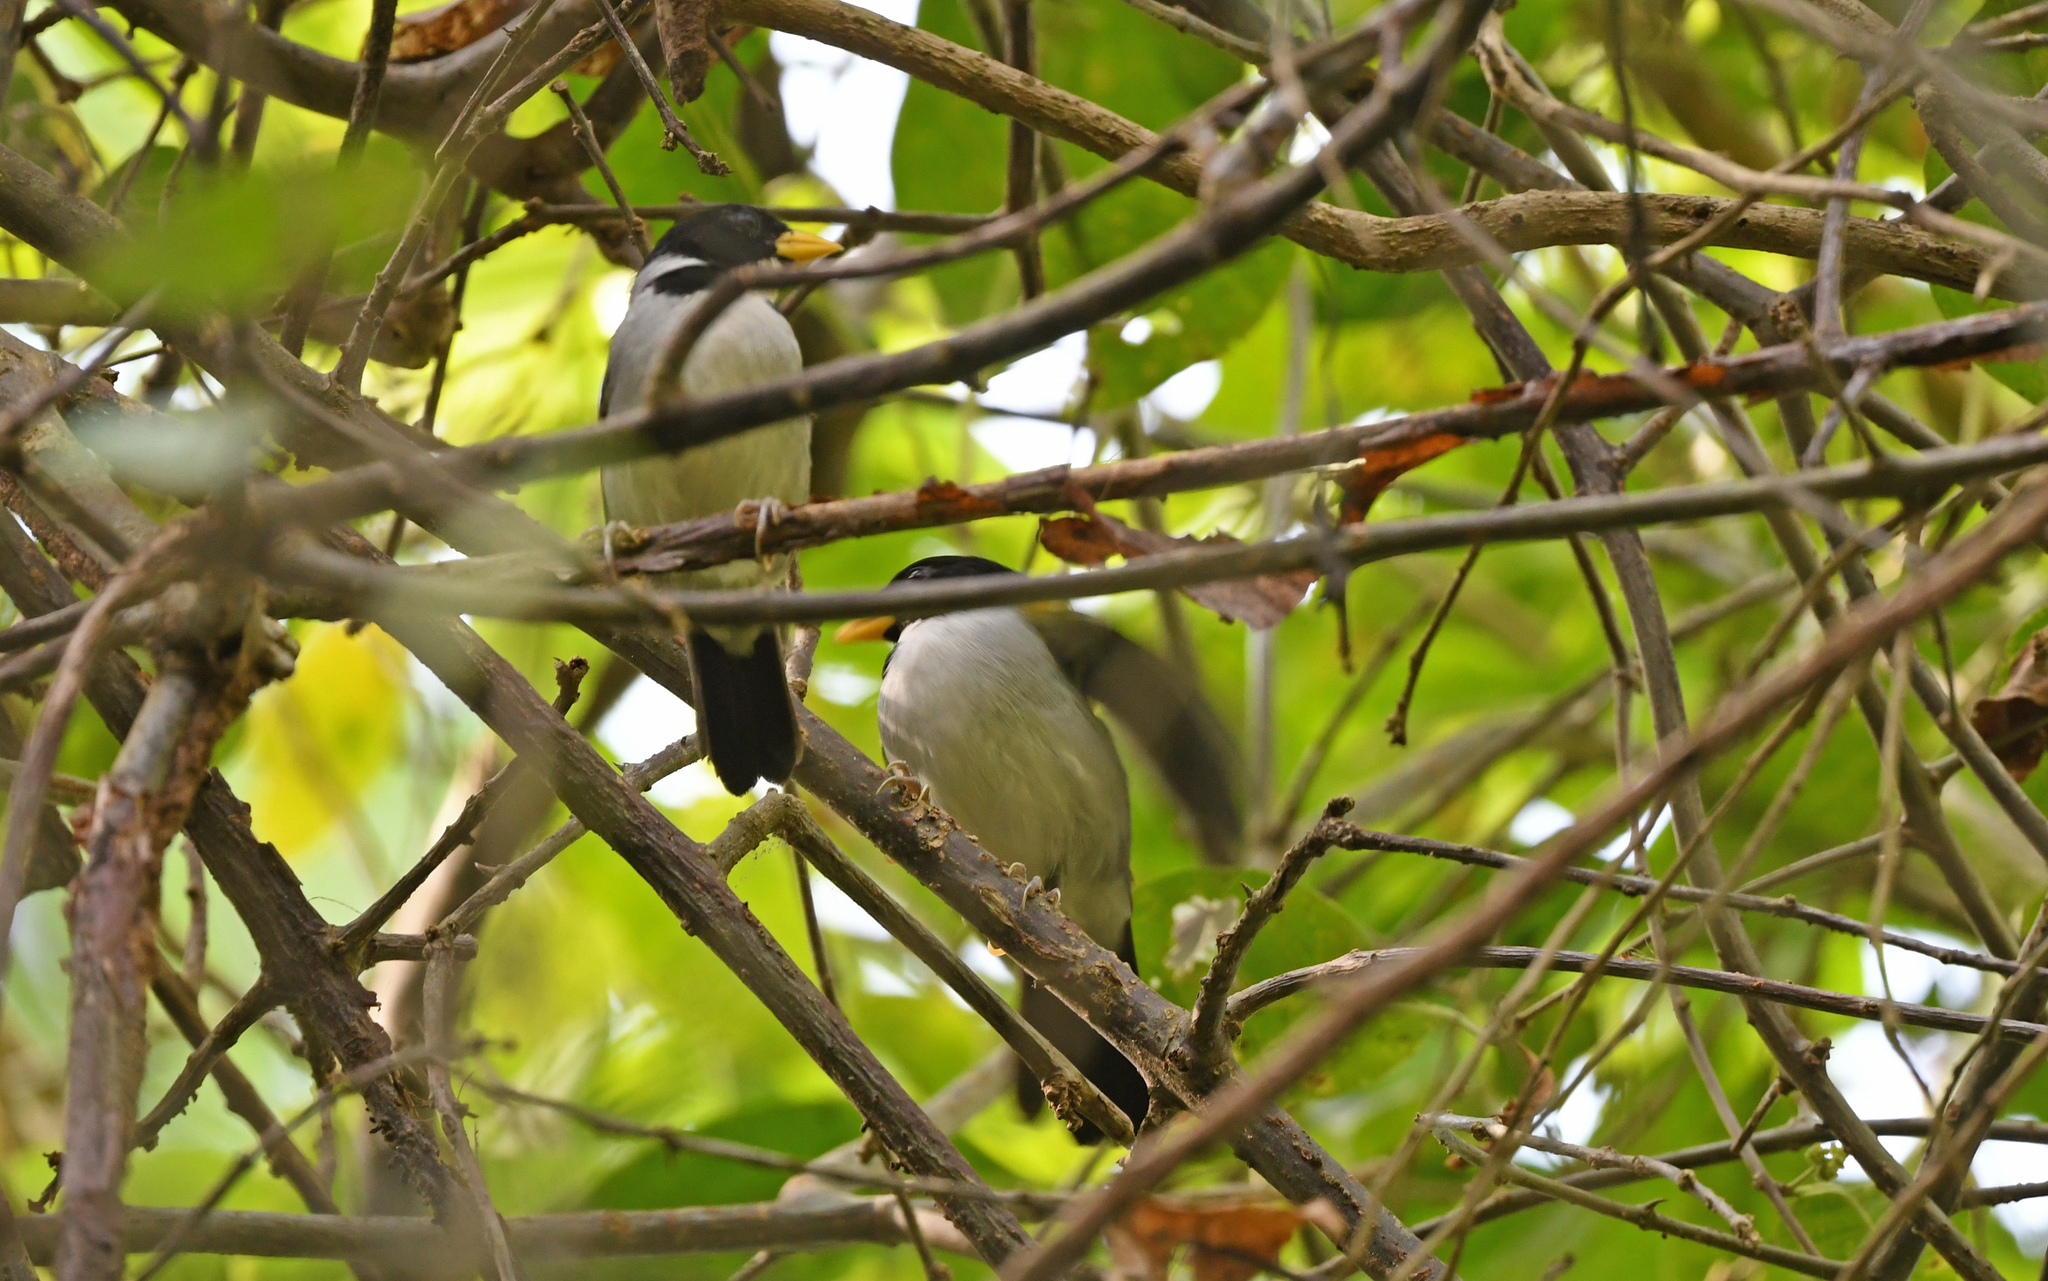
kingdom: Animalia
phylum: Chordata
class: Aves
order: Passeriformes
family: Passerellidae
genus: Arremon
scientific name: Arremon schlegeli
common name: Golden-winged sparrow
